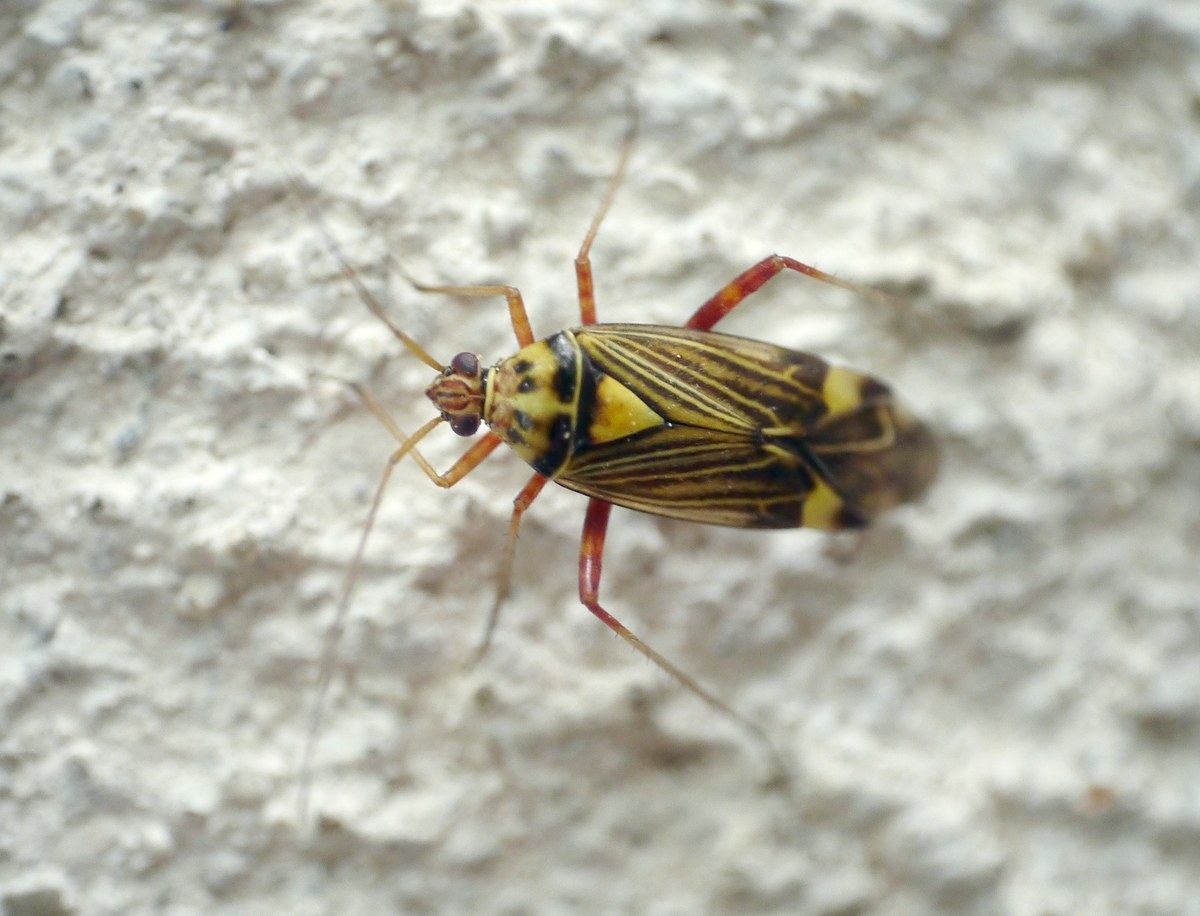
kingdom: Animalia
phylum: Arthropoda
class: Insecta
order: Hemiptera
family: Miridae
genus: Rhabdomiris
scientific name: Rhabdomiris striatellus
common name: Plant bug
